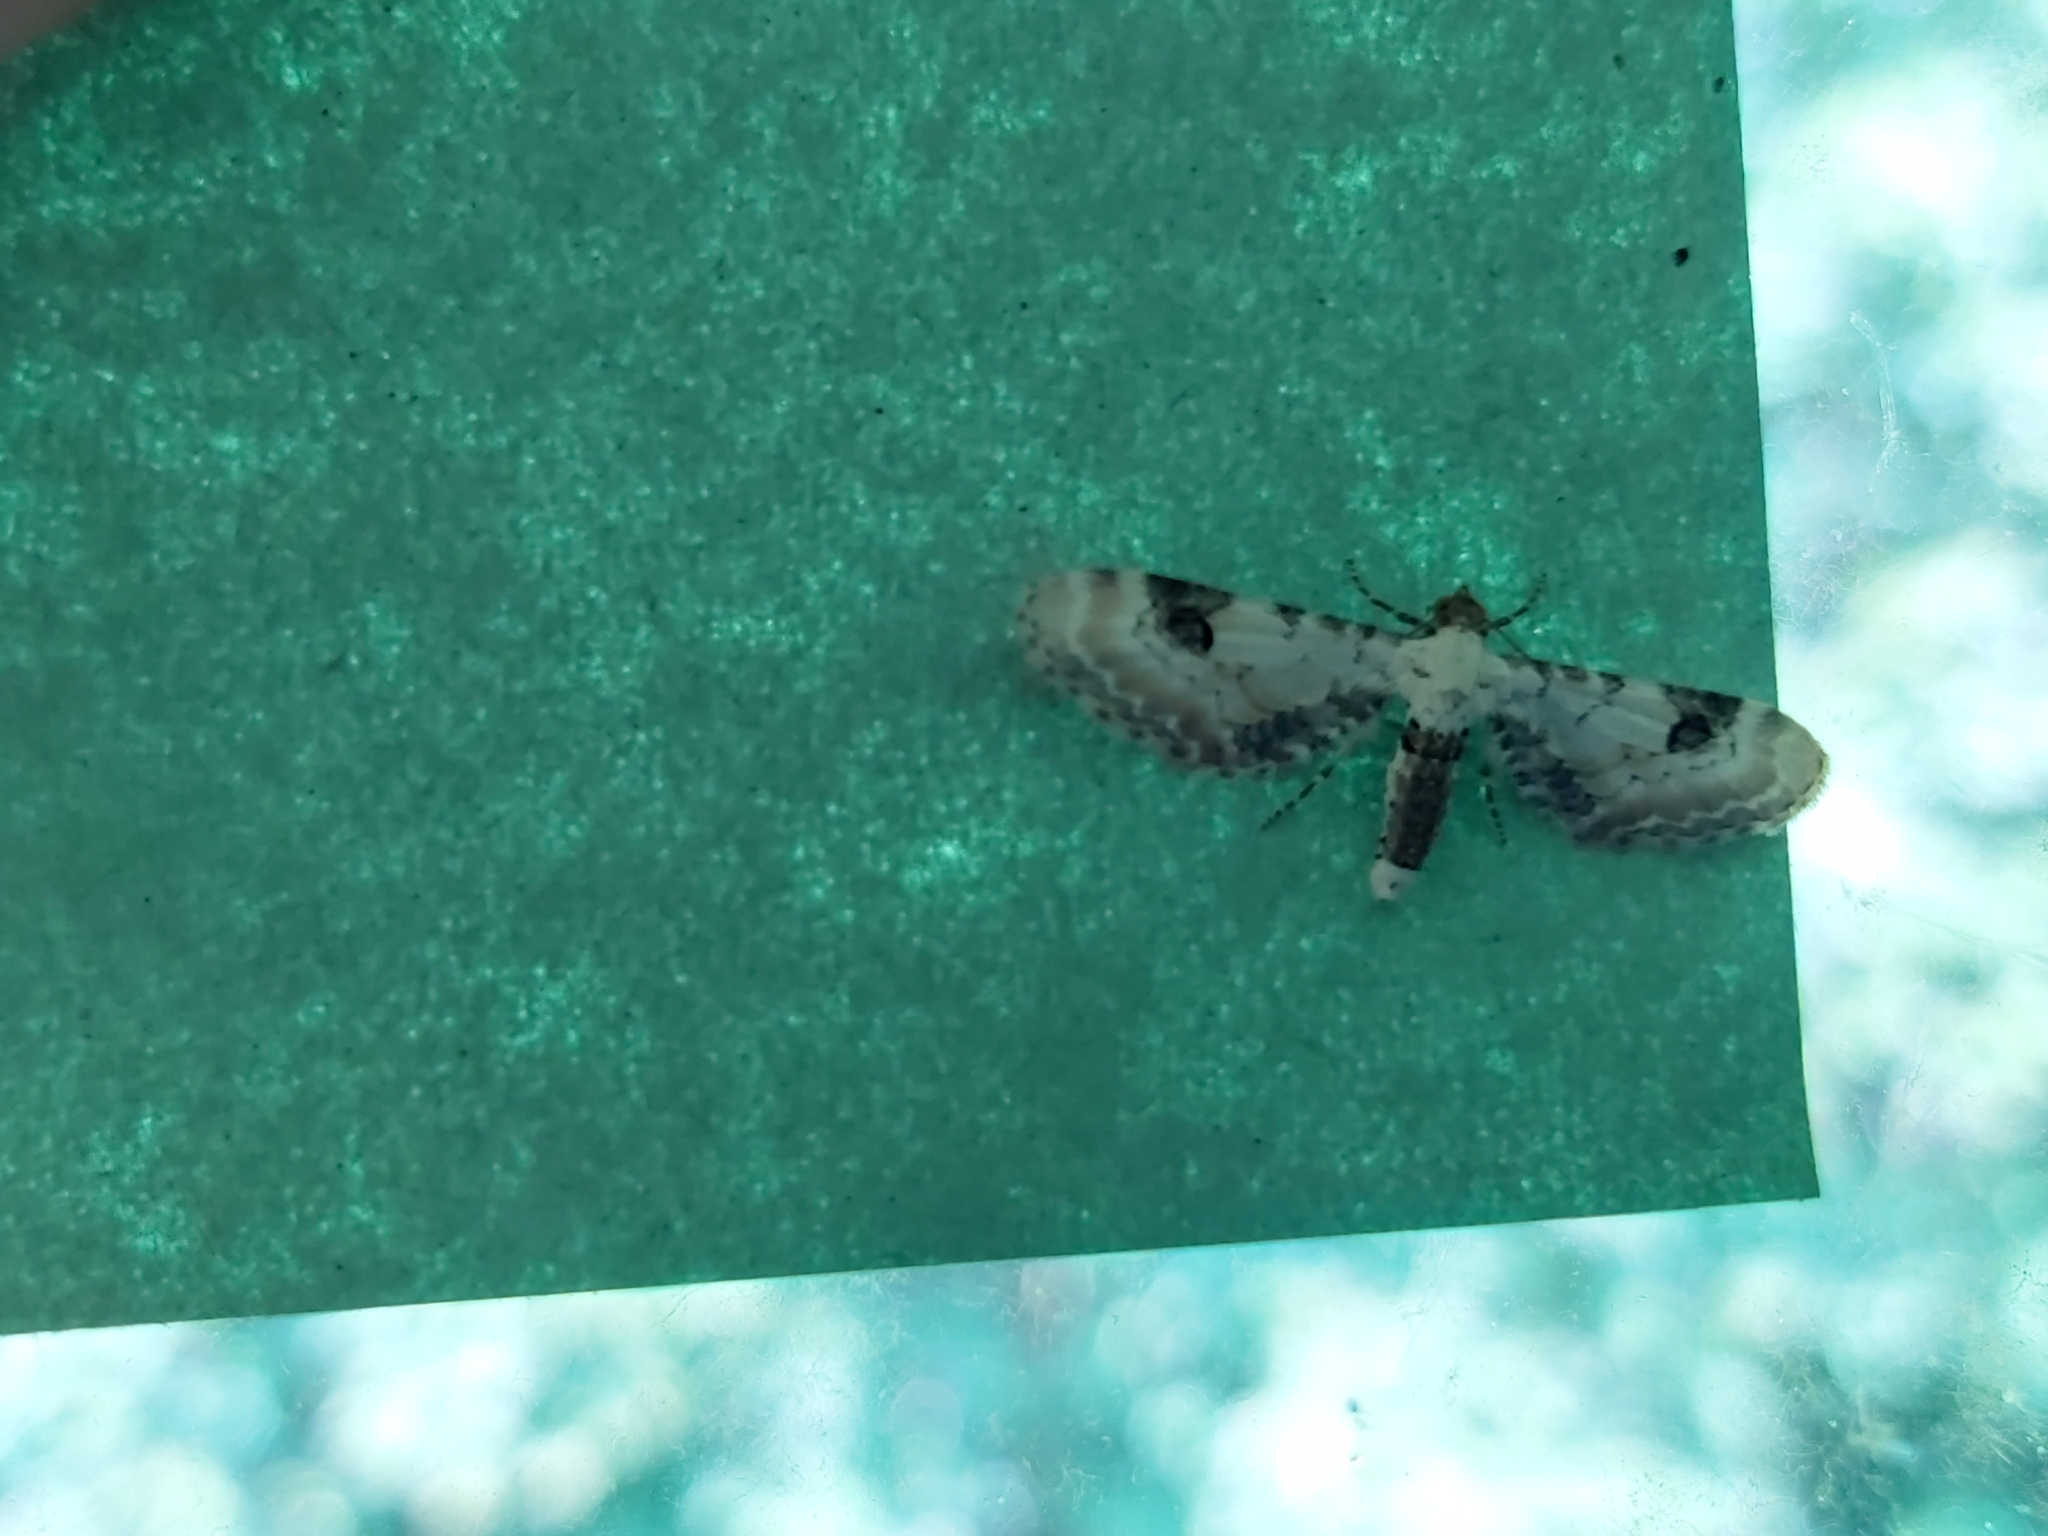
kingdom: Animalia
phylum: Arthropoda
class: Insecta
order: Lepidoptera
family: Geometridae
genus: Eupithecia
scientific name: Eupithecia centaureata
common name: Lime-speck pug
